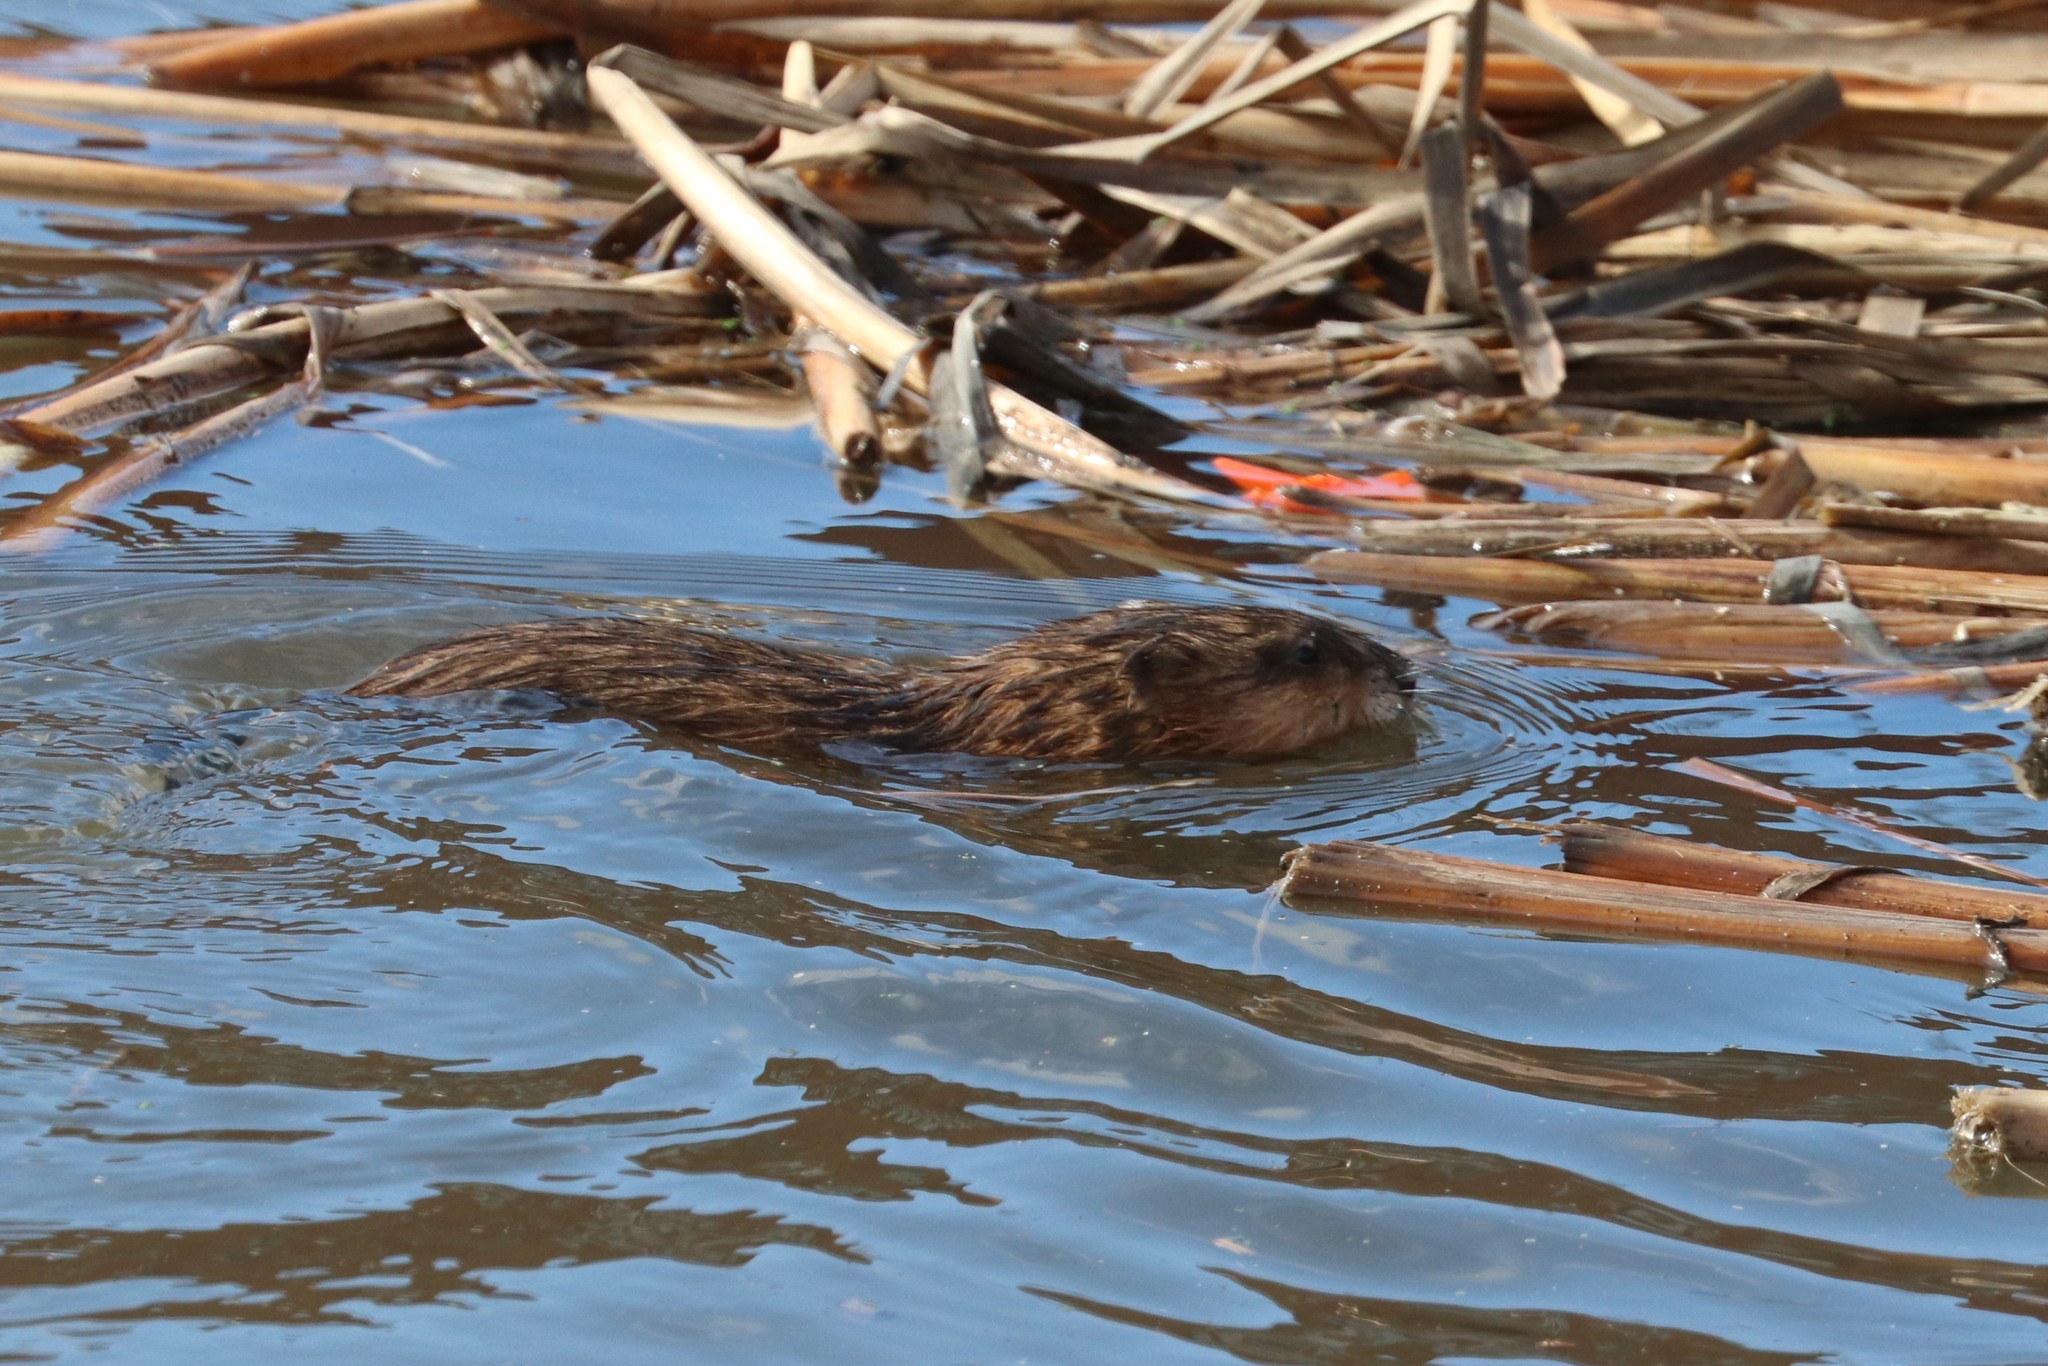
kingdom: Animalia
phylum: Chordata
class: Mammalia
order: Rodentia
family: Cricetidae
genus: Ondatra
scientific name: Ondatra zibethicus
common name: Muskrat
